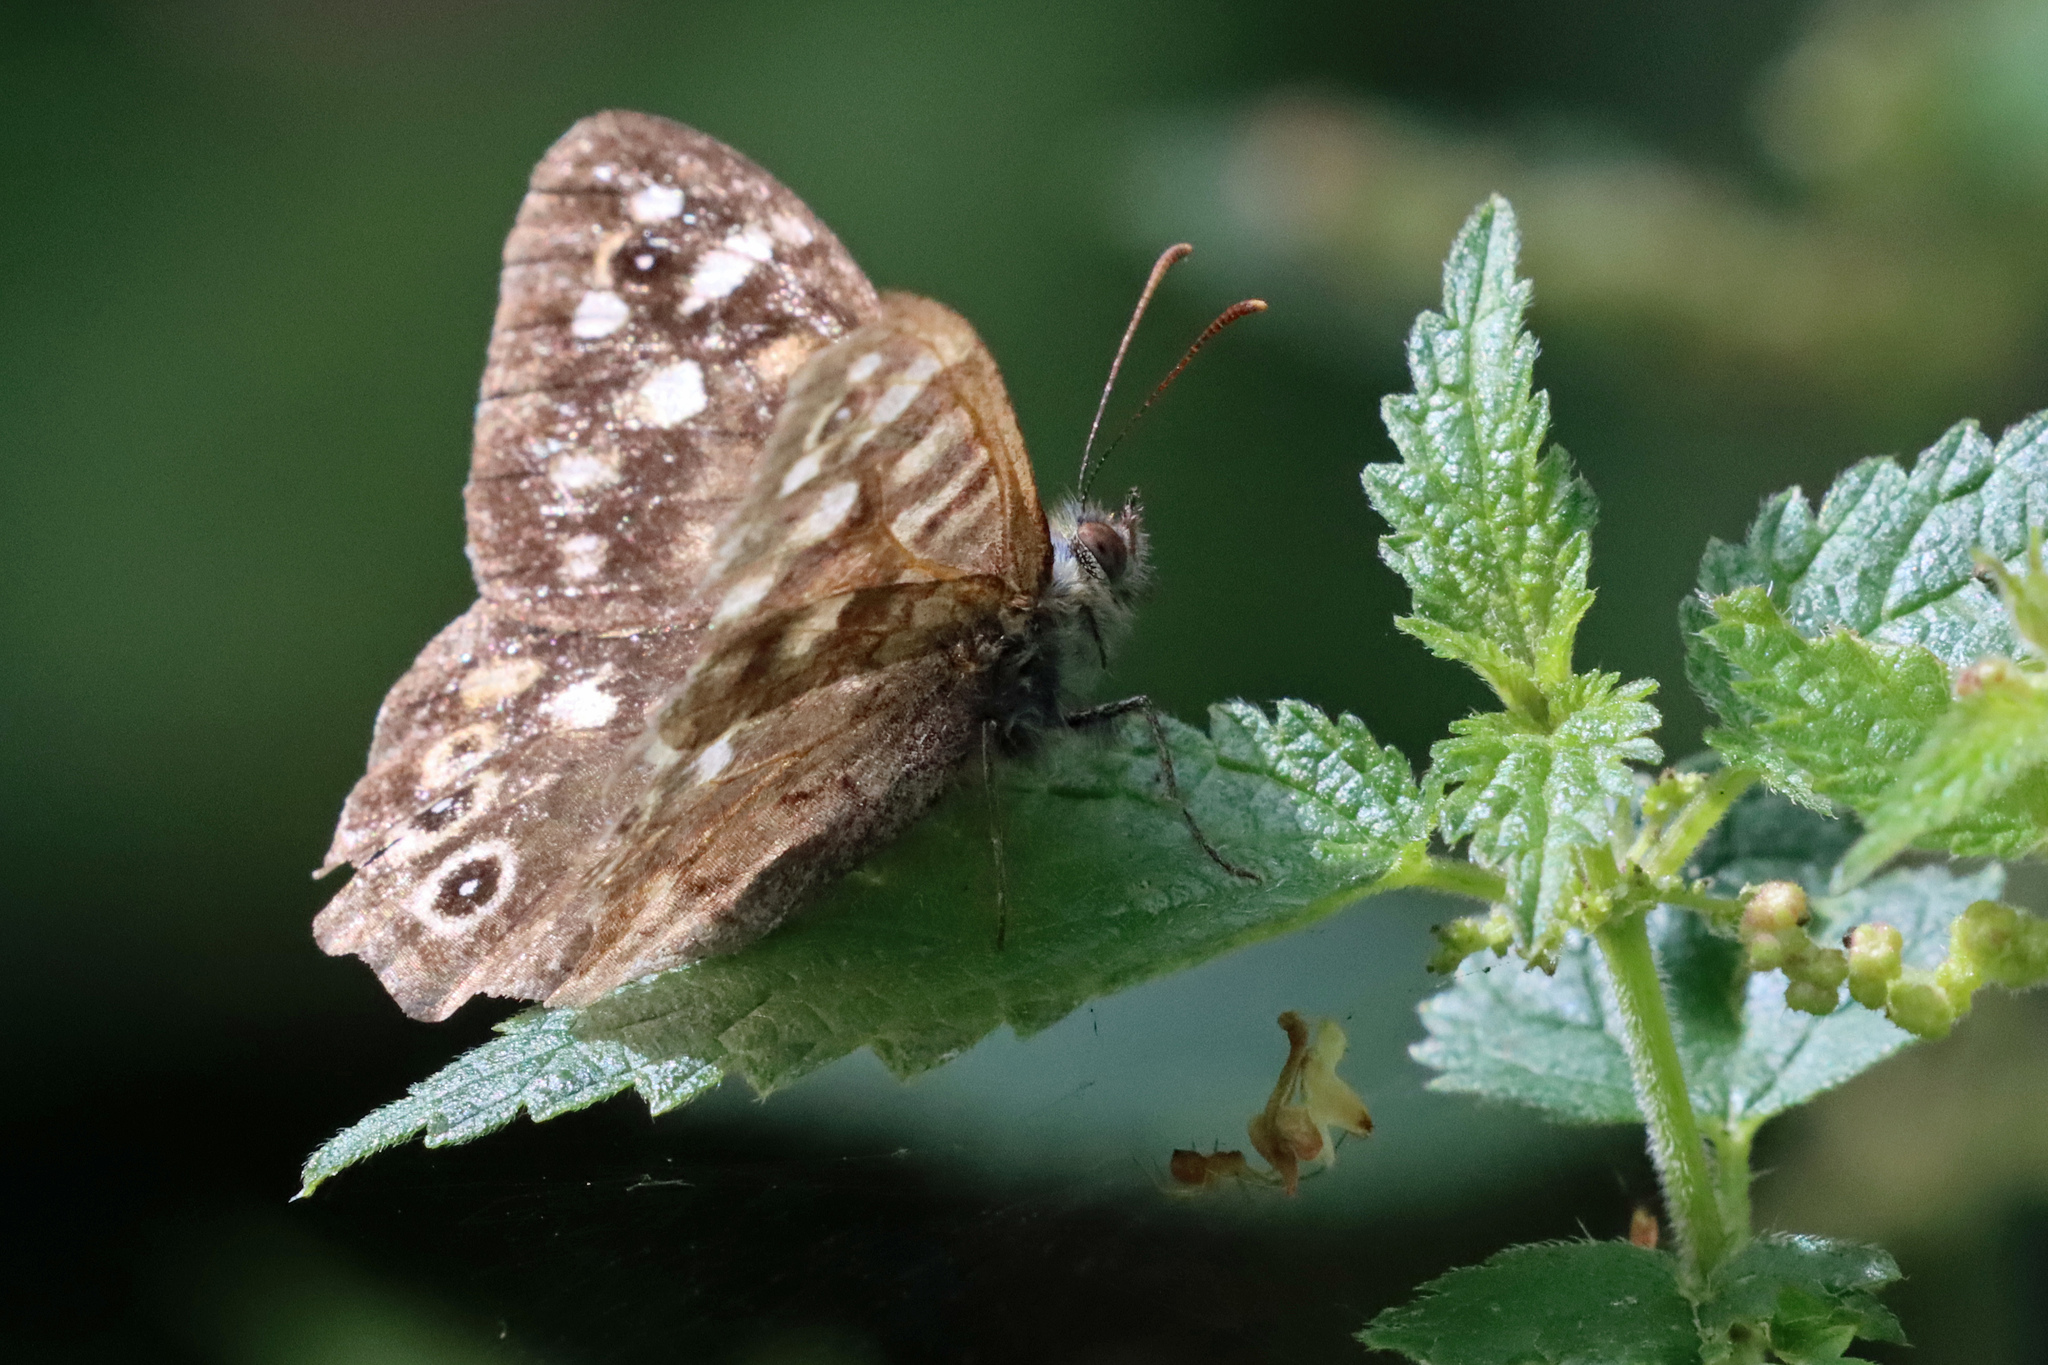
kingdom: Animalia
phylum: Arthropoda
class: Insecta
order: Lepidoptera
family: Nymphalidae
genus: Pararge
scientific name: Pararge aegeria
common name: Speckled wood
